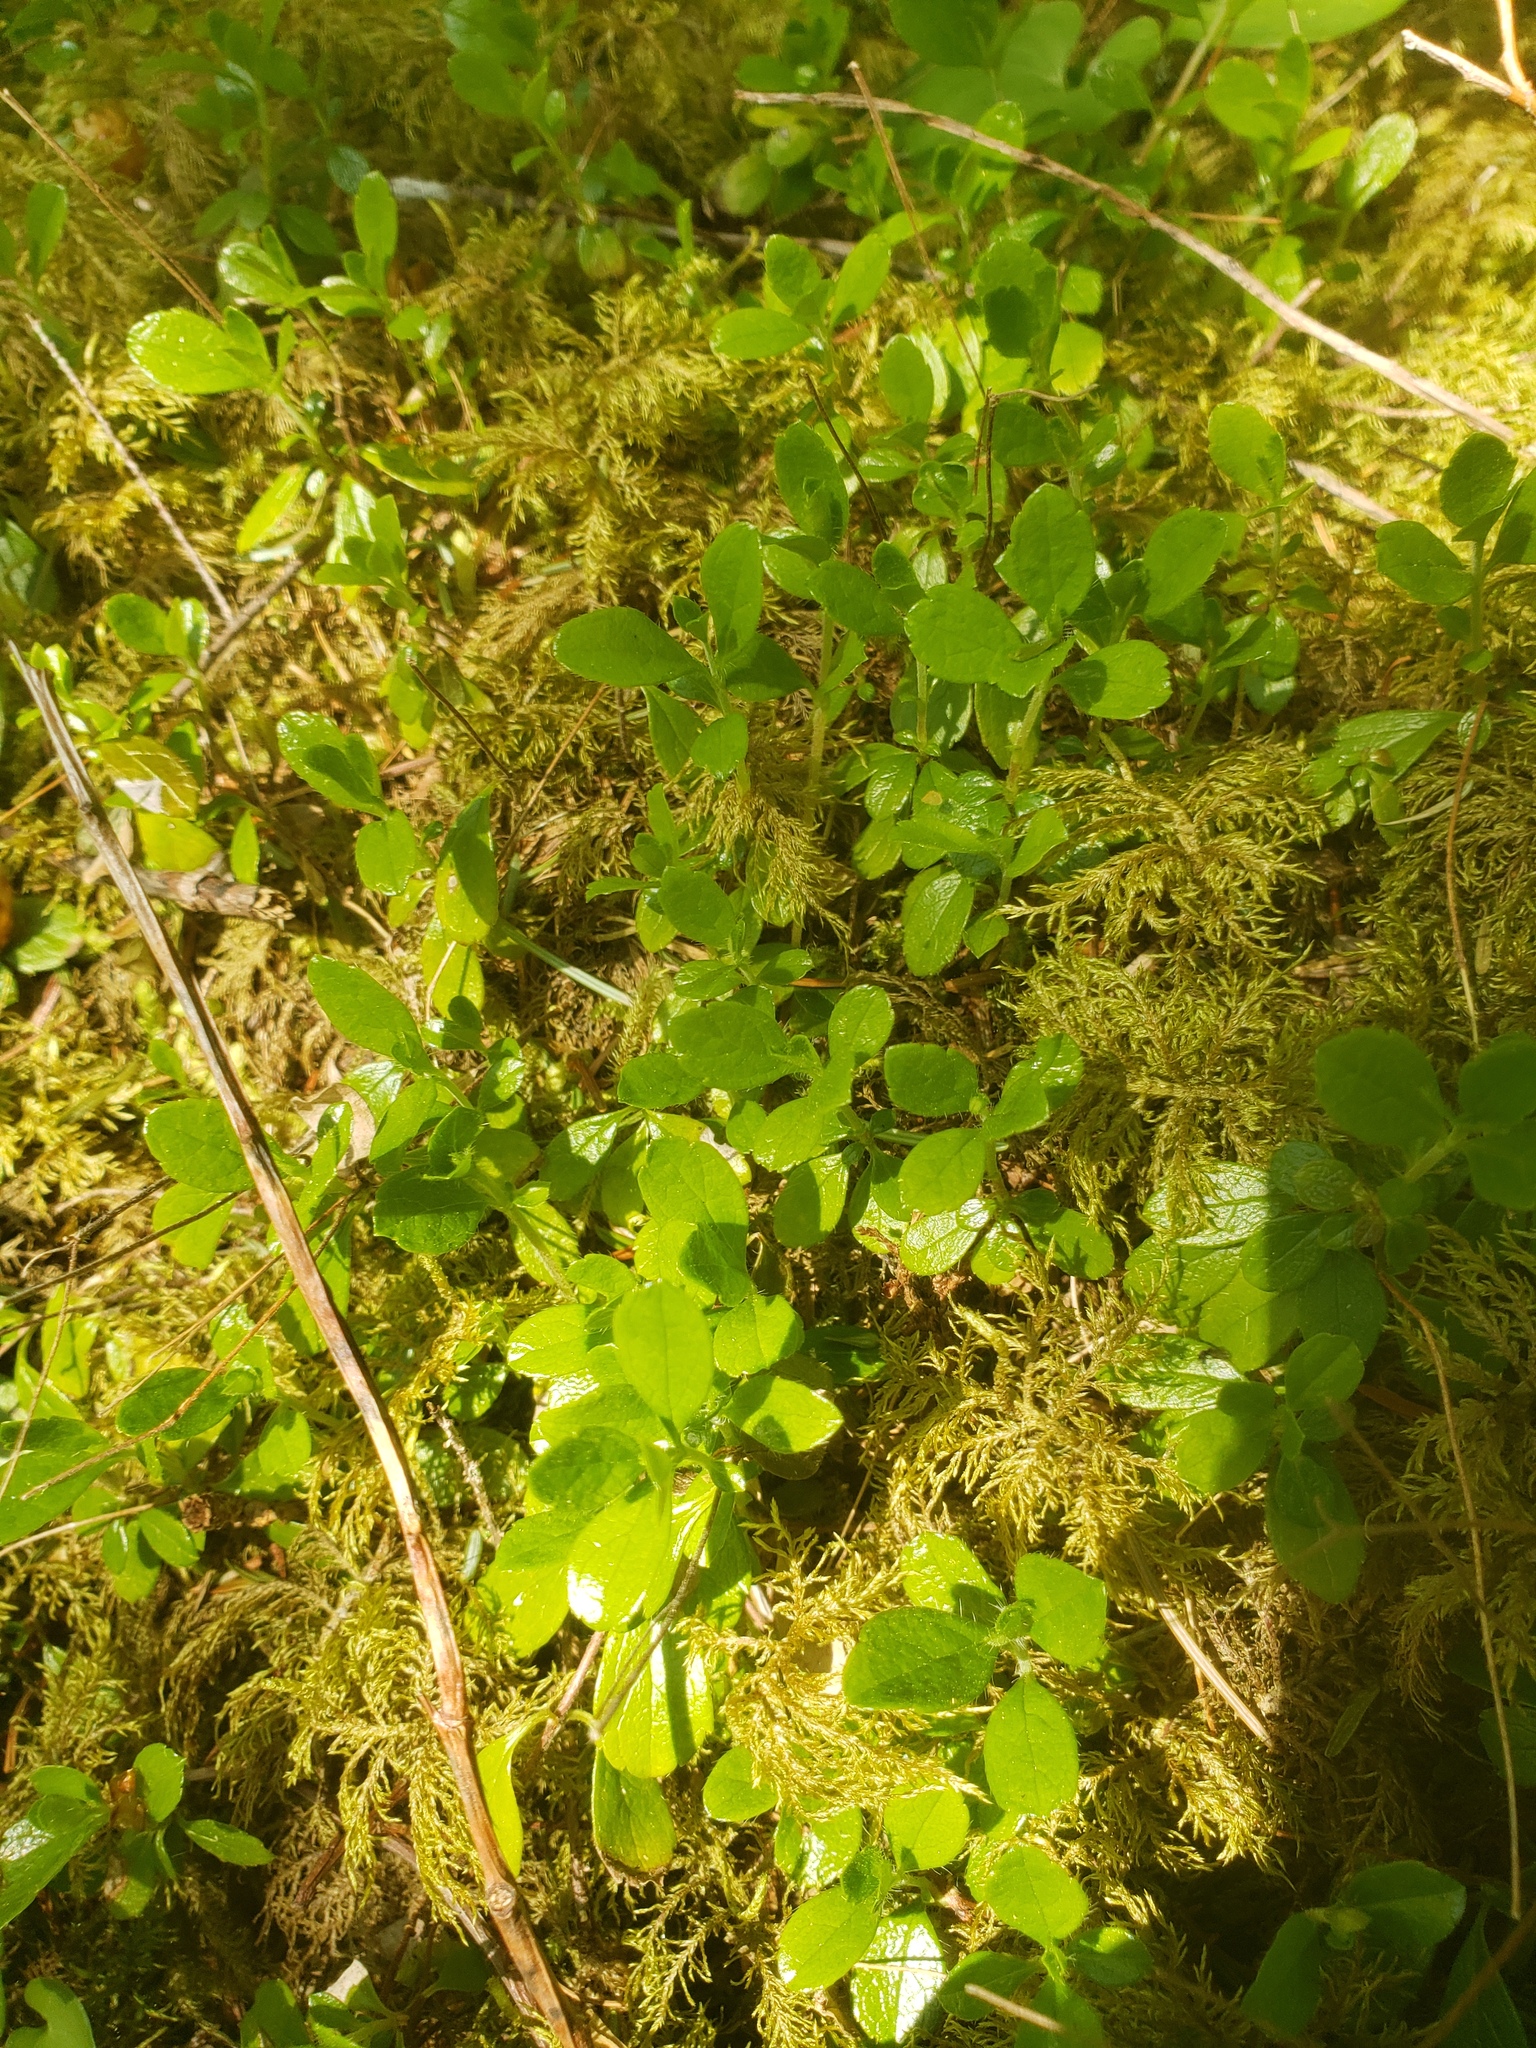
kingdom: Plantae
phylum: Tracheophyta
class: Magnoliopsida
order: Dipsacales
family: Caprifoliaceae
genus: Linnaea
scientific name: Linnaea borealis
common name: Twinflower
